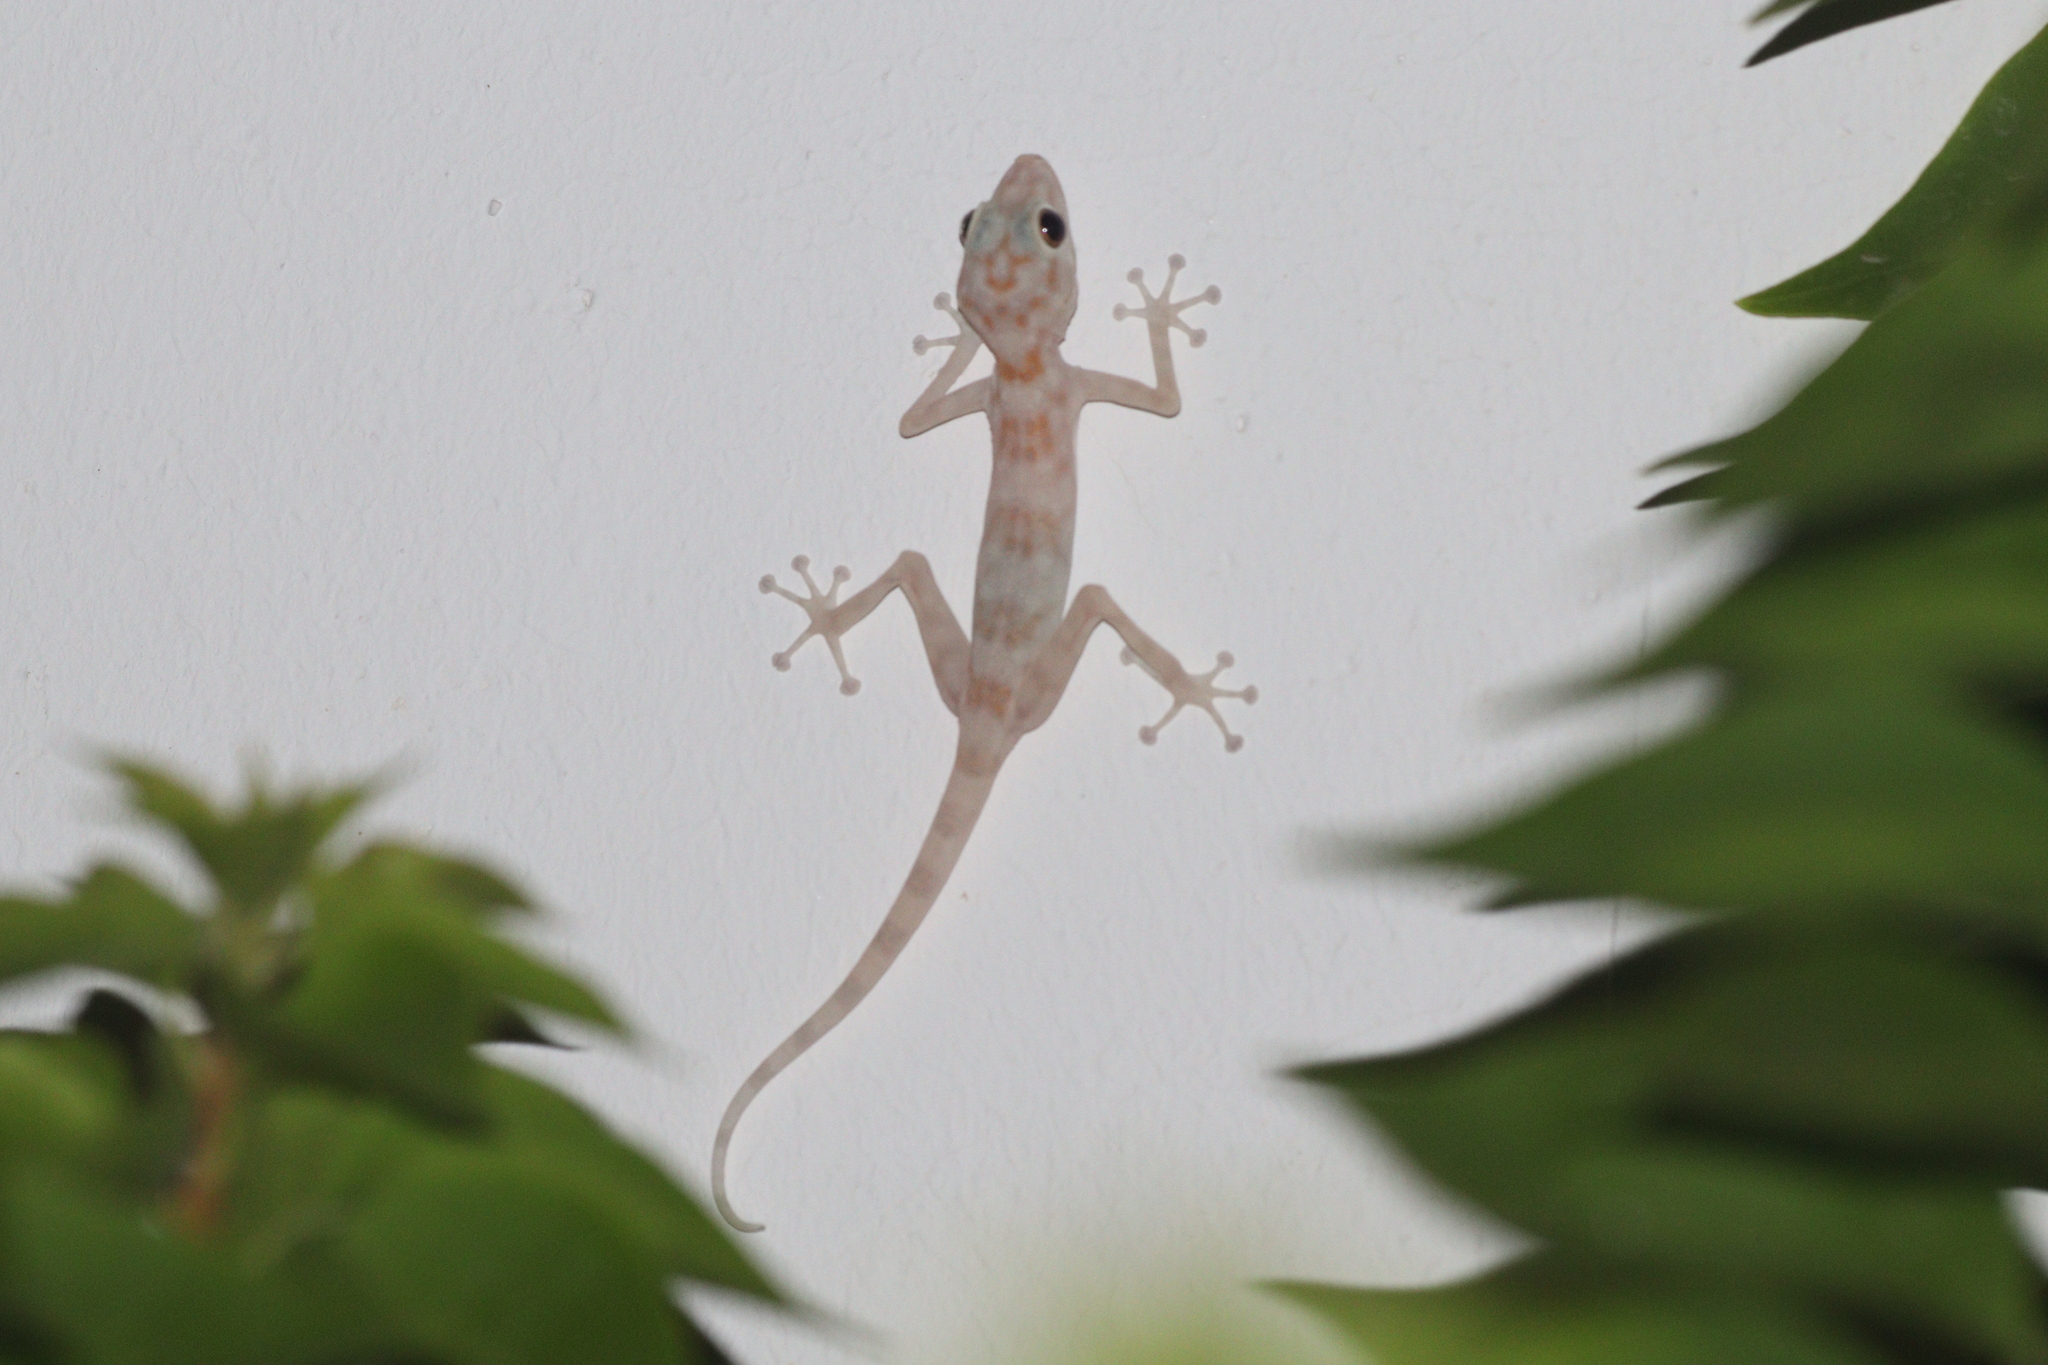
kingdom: Animalia
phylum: Chordata
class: Squamata
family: Phyllodactylidae
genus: Ptyodactylus
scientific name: Ptyodactylus hasselquistii
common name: Hasselquist’s fan-footed gecko
